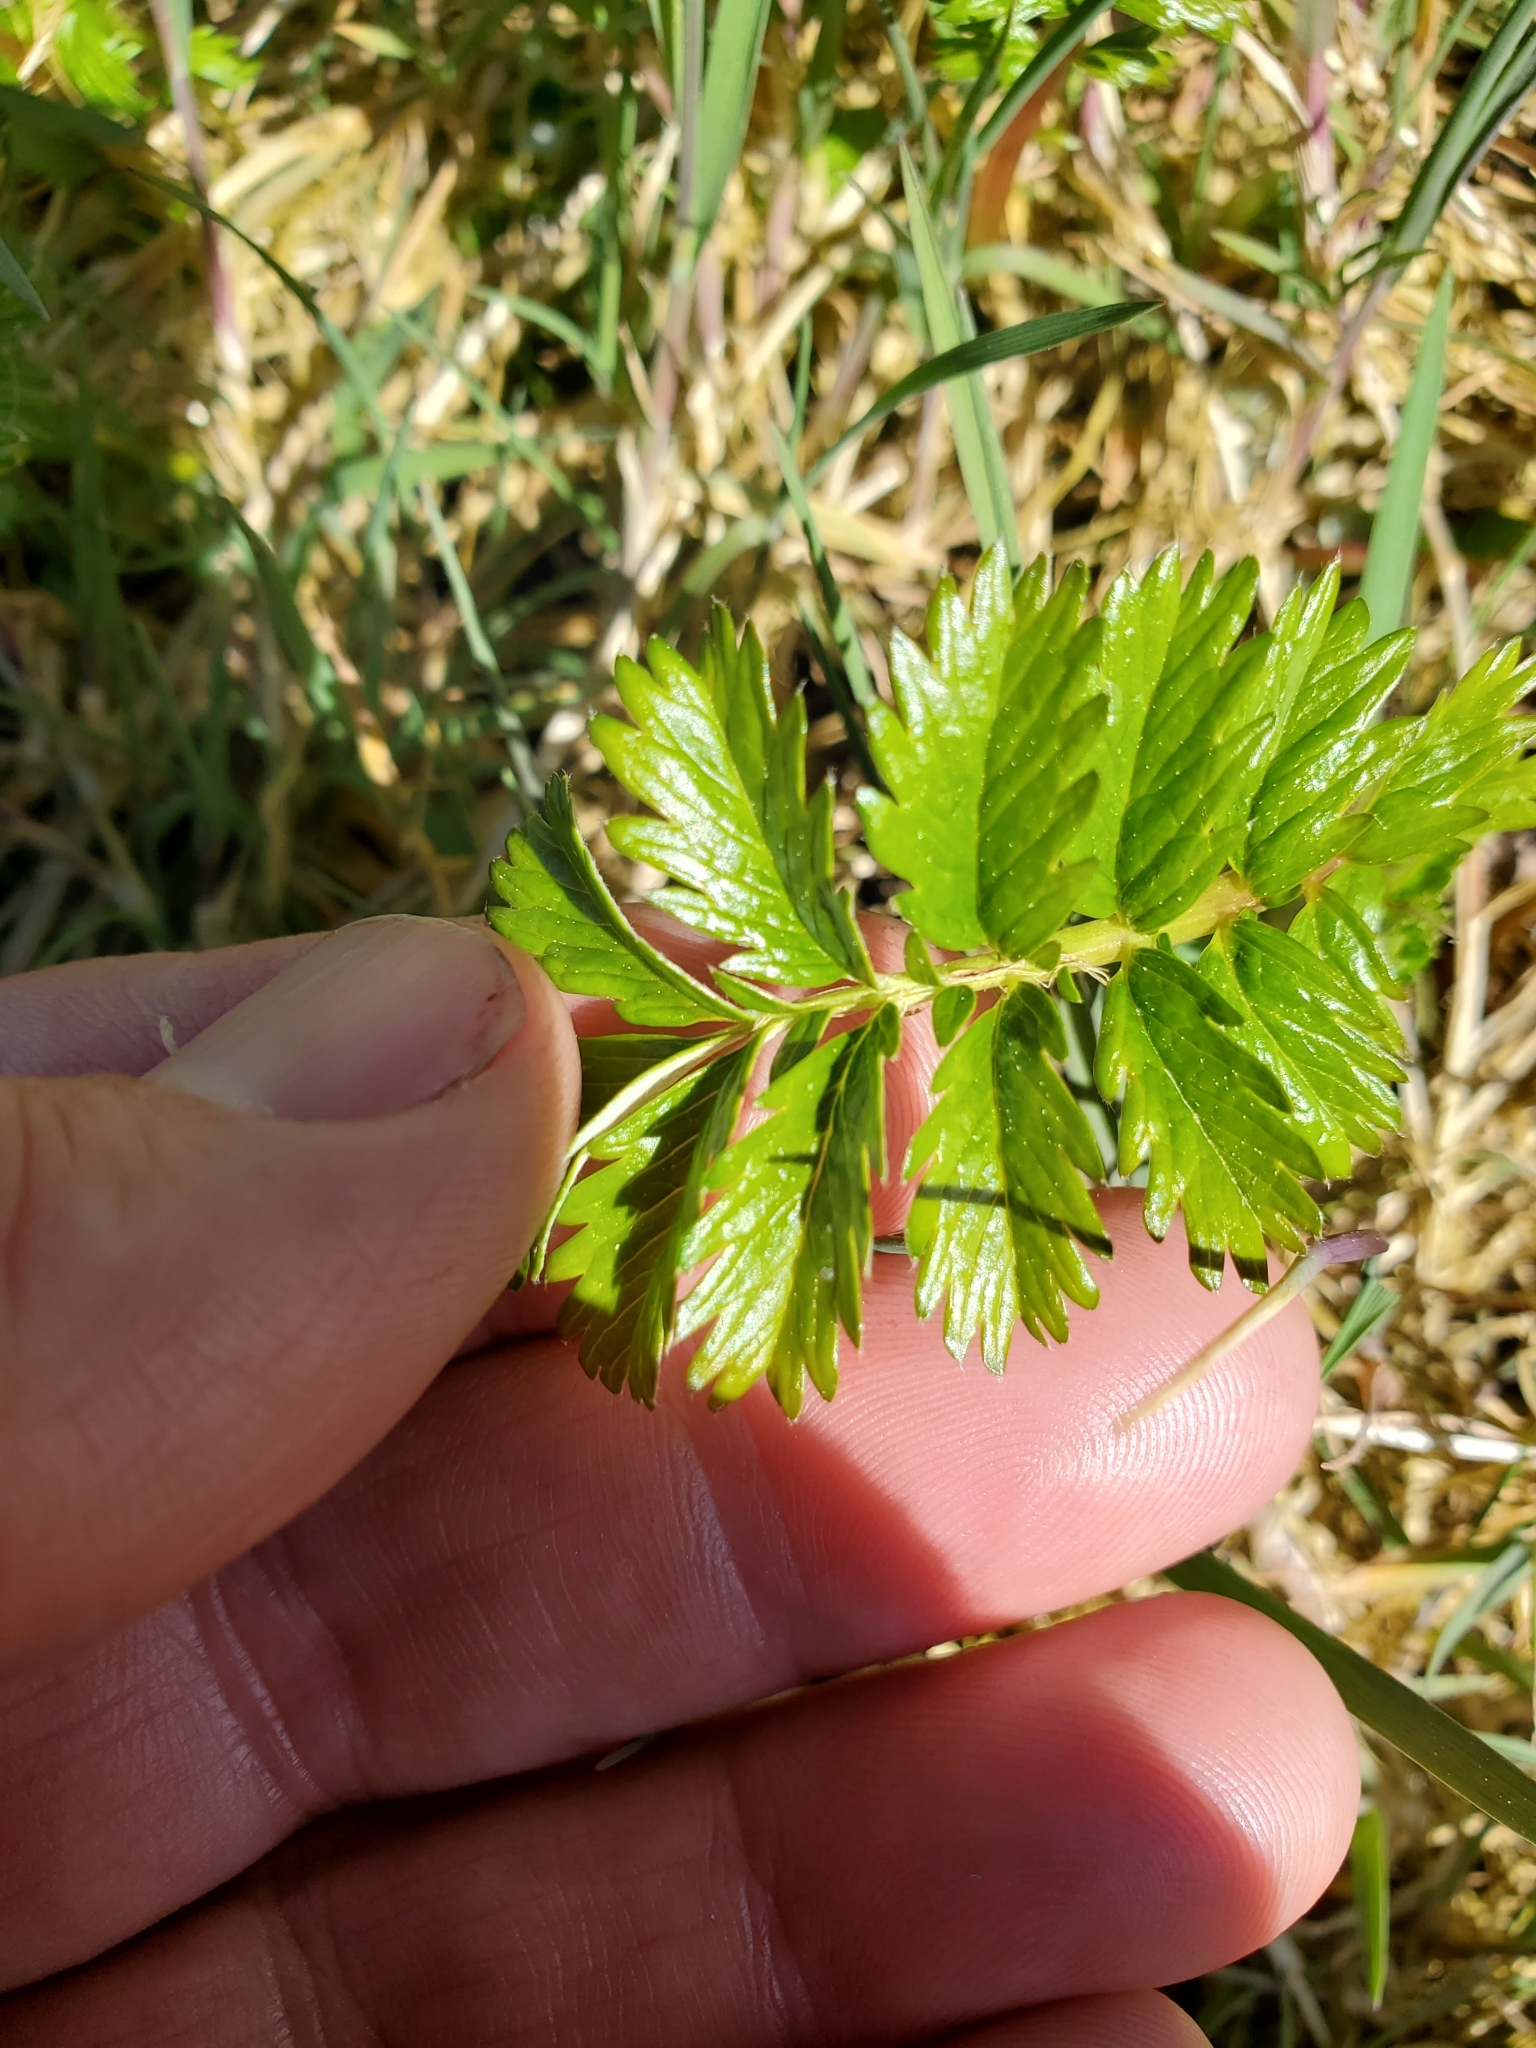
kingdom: Plantae
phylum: Tracheophyta
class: Magnoliopsida
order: Rosales
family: Rosaceae
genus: Argentina
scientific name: Argentina anserina
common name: Common silverweed
